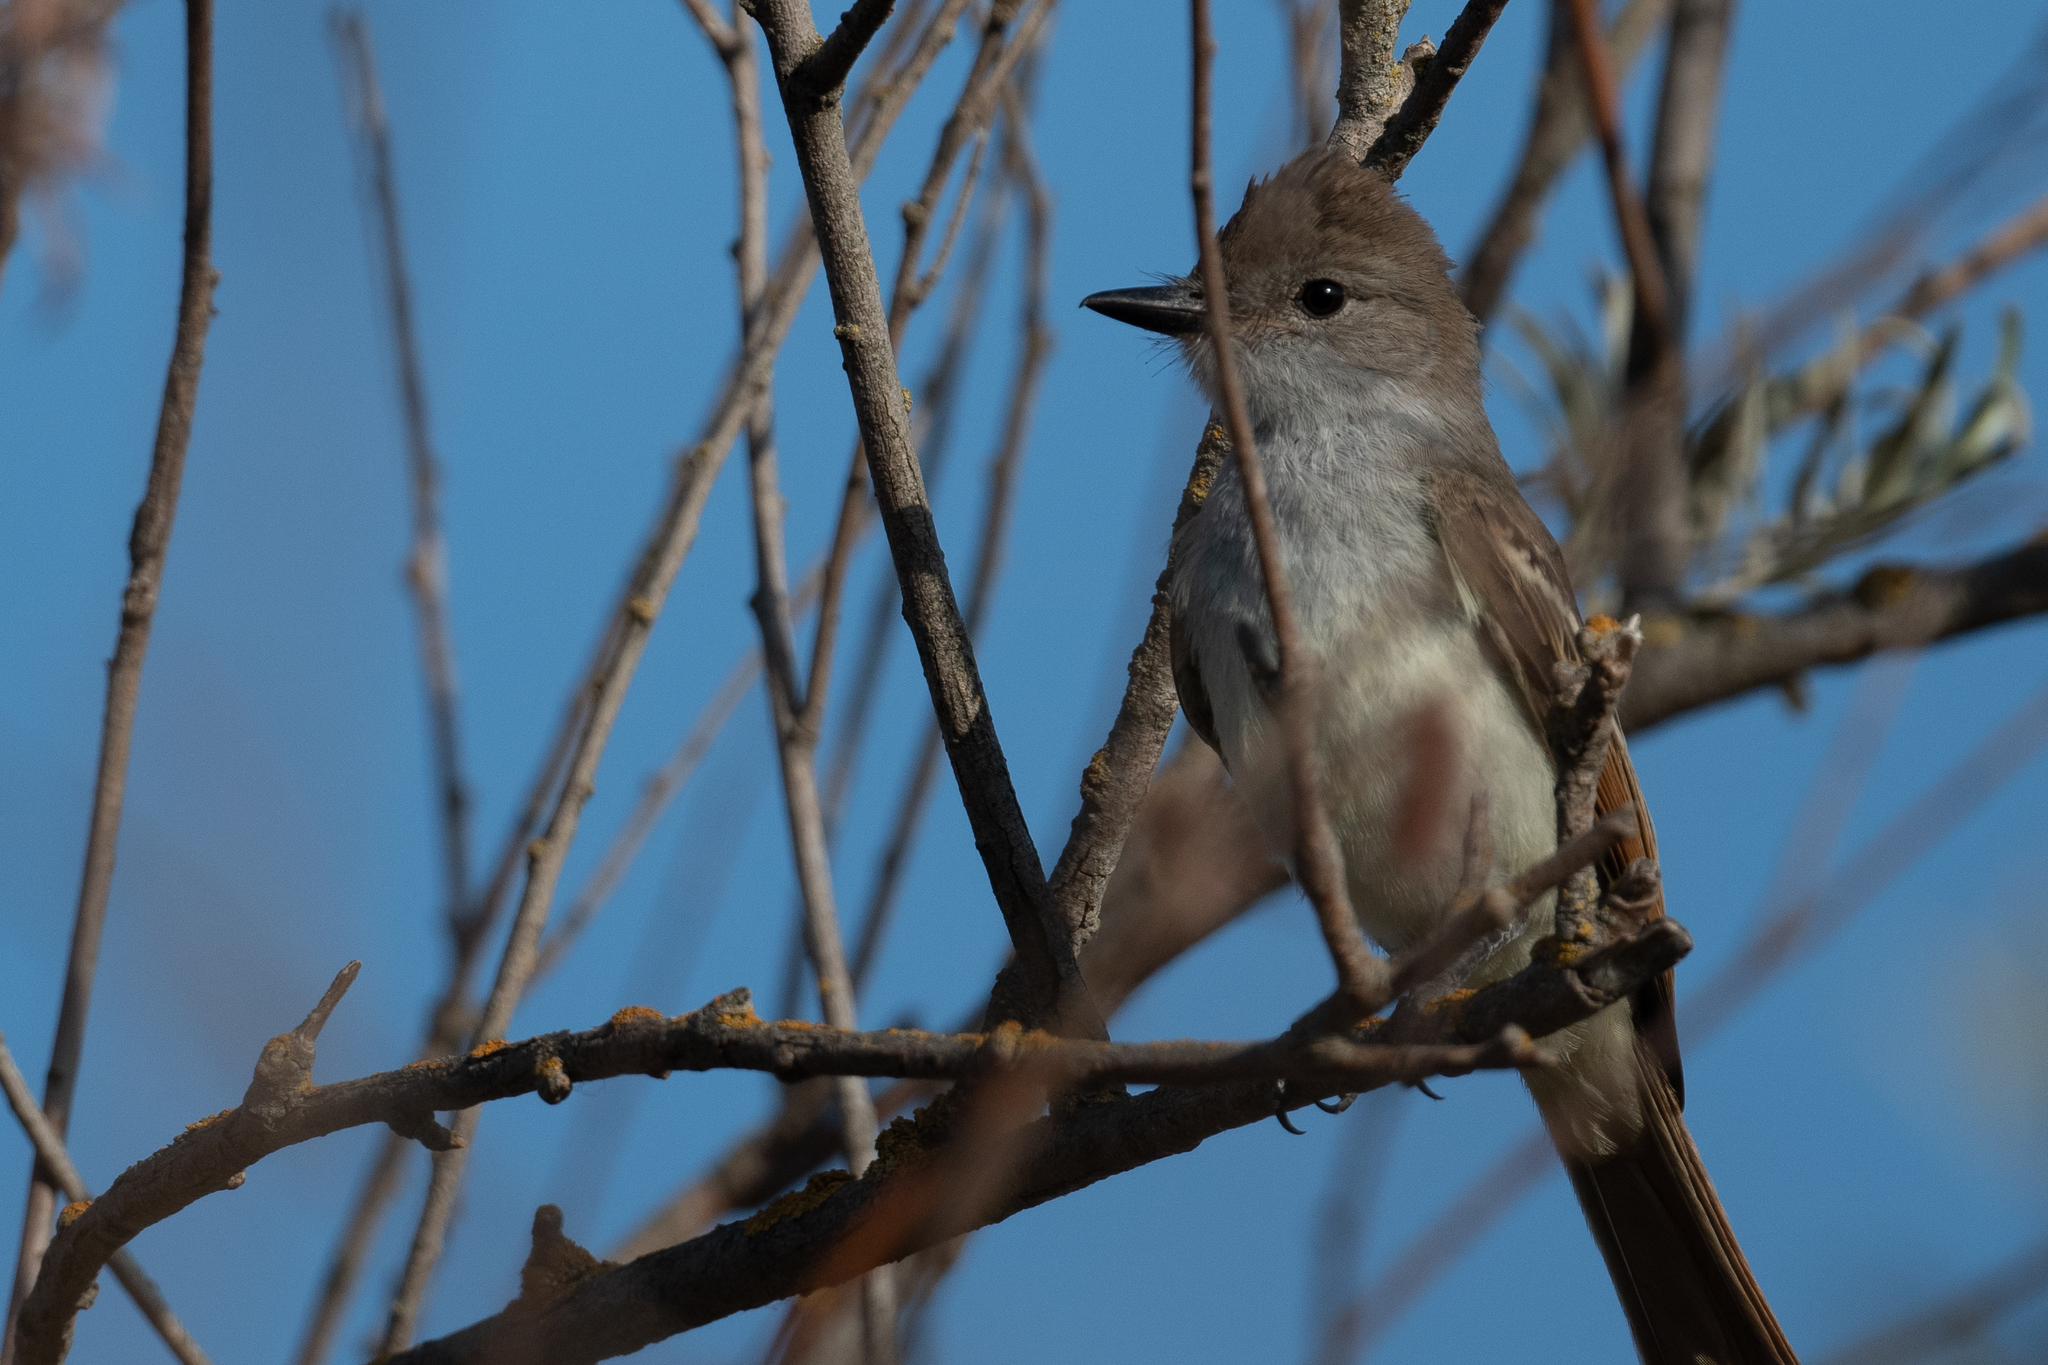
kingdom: Animalia
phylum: Chordata
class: Aves
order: Passeriformes
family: Tyrannidae
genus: Myiarchus
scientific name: Myiarchus cinerascens
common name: Ash-throated flycatcher
